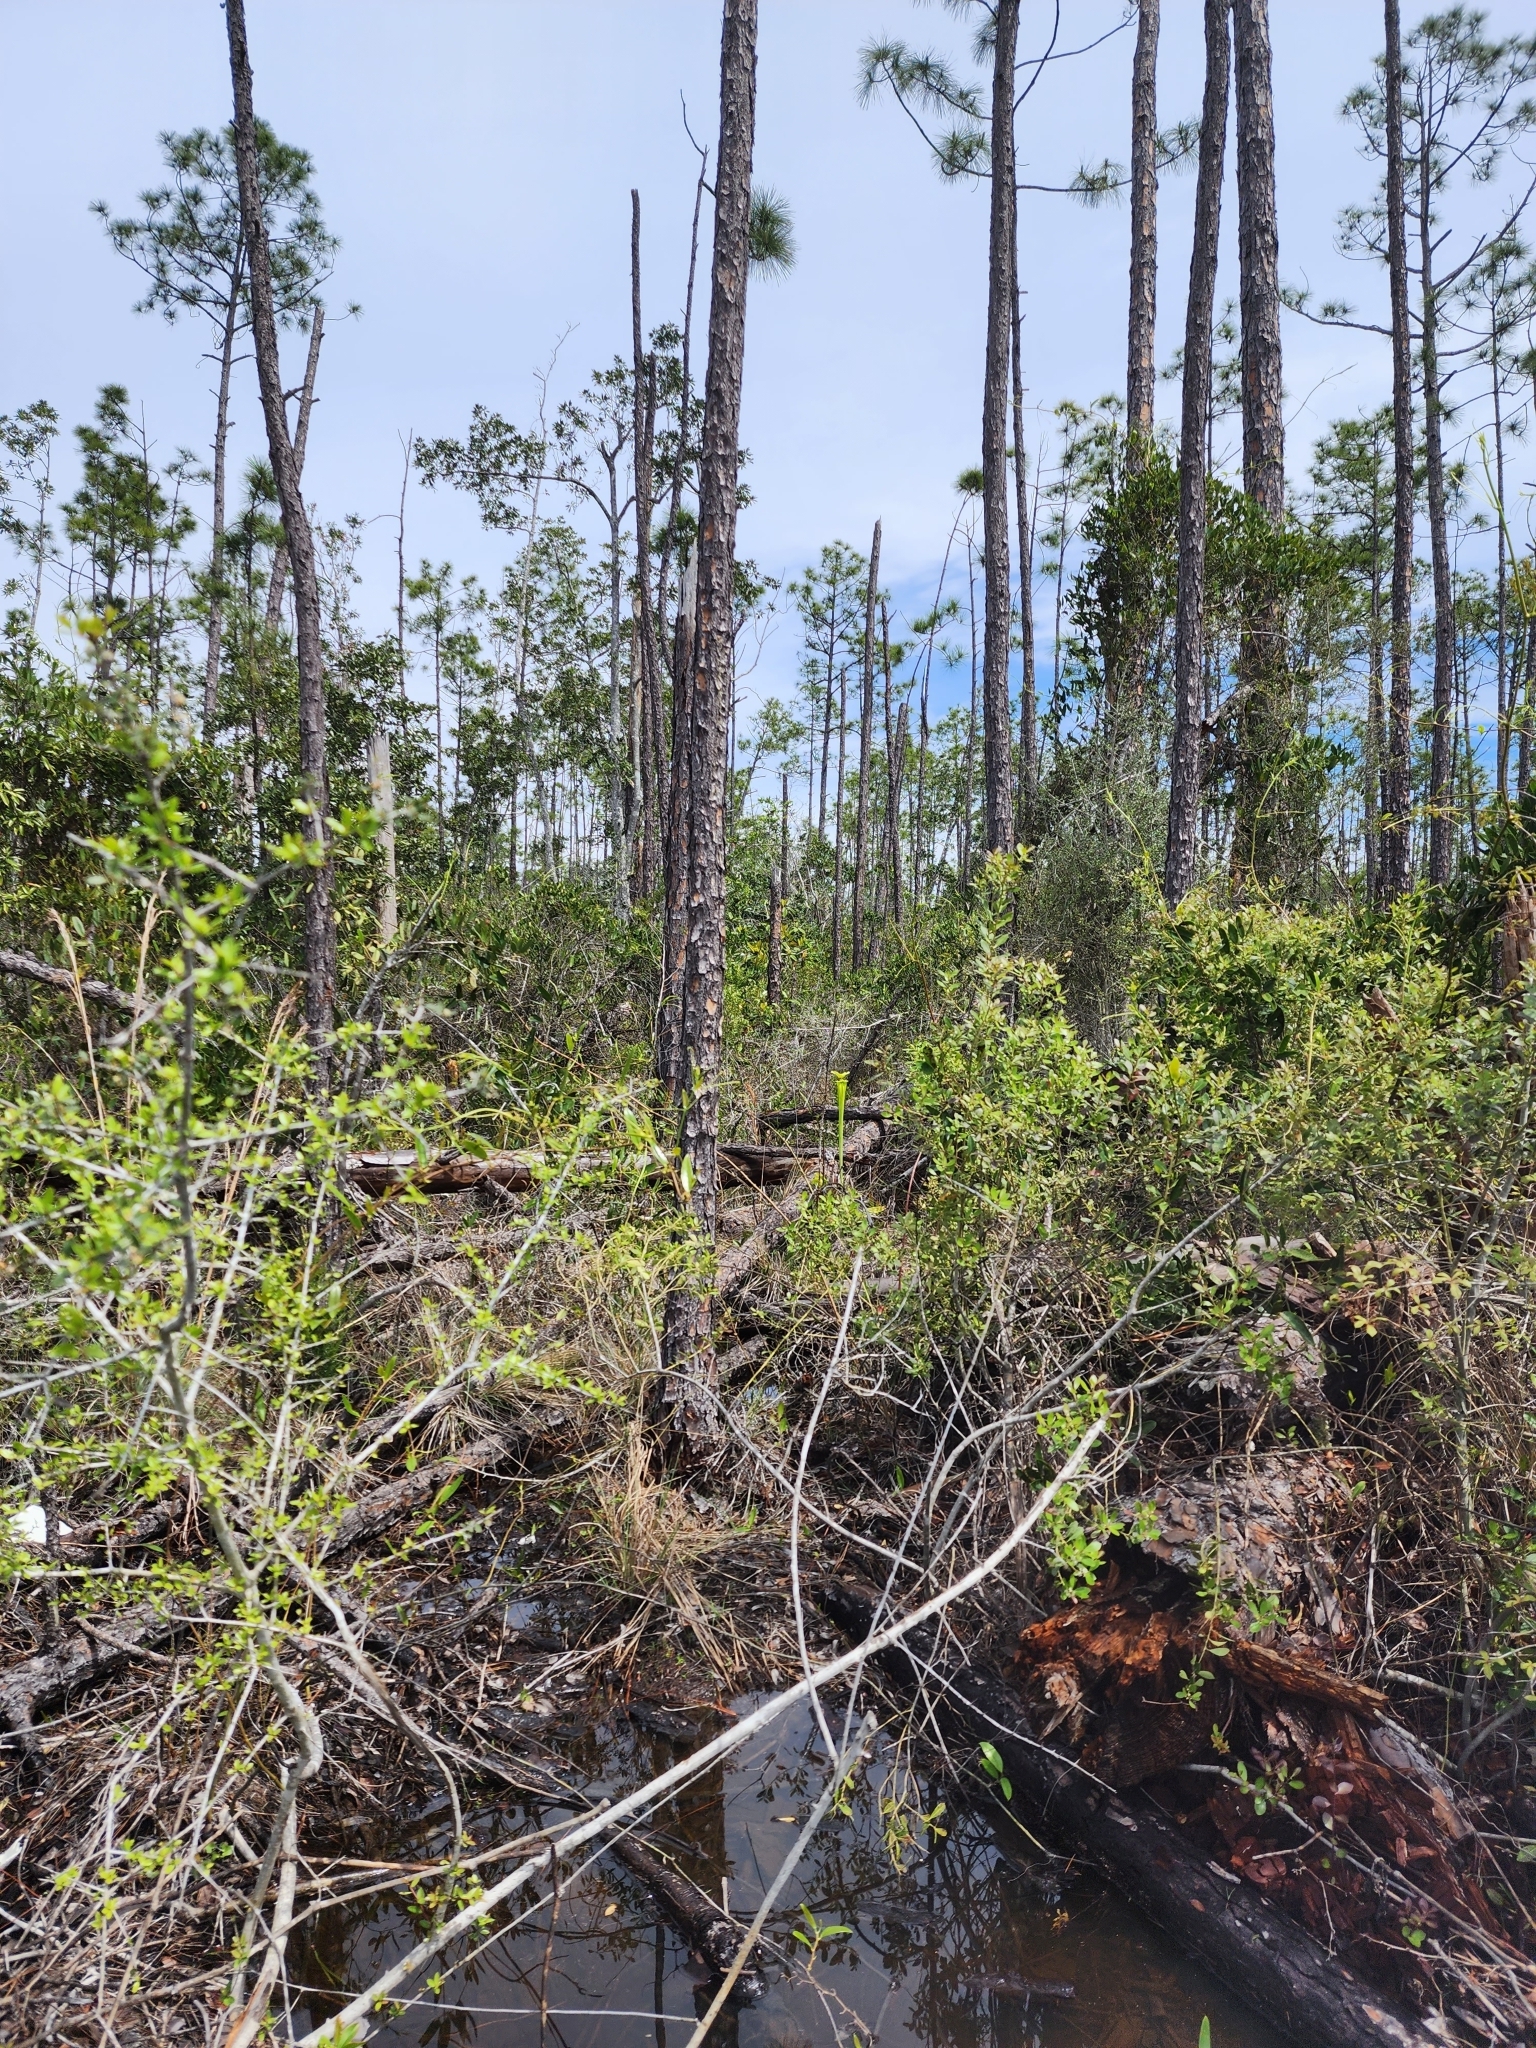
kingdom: Plantae
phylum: Tracheophyta
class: Magnoliopsida
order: Ericales
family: Sarraceniaceae
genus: Sarracenia
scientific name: Sarracenia flava
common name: Trumpets
